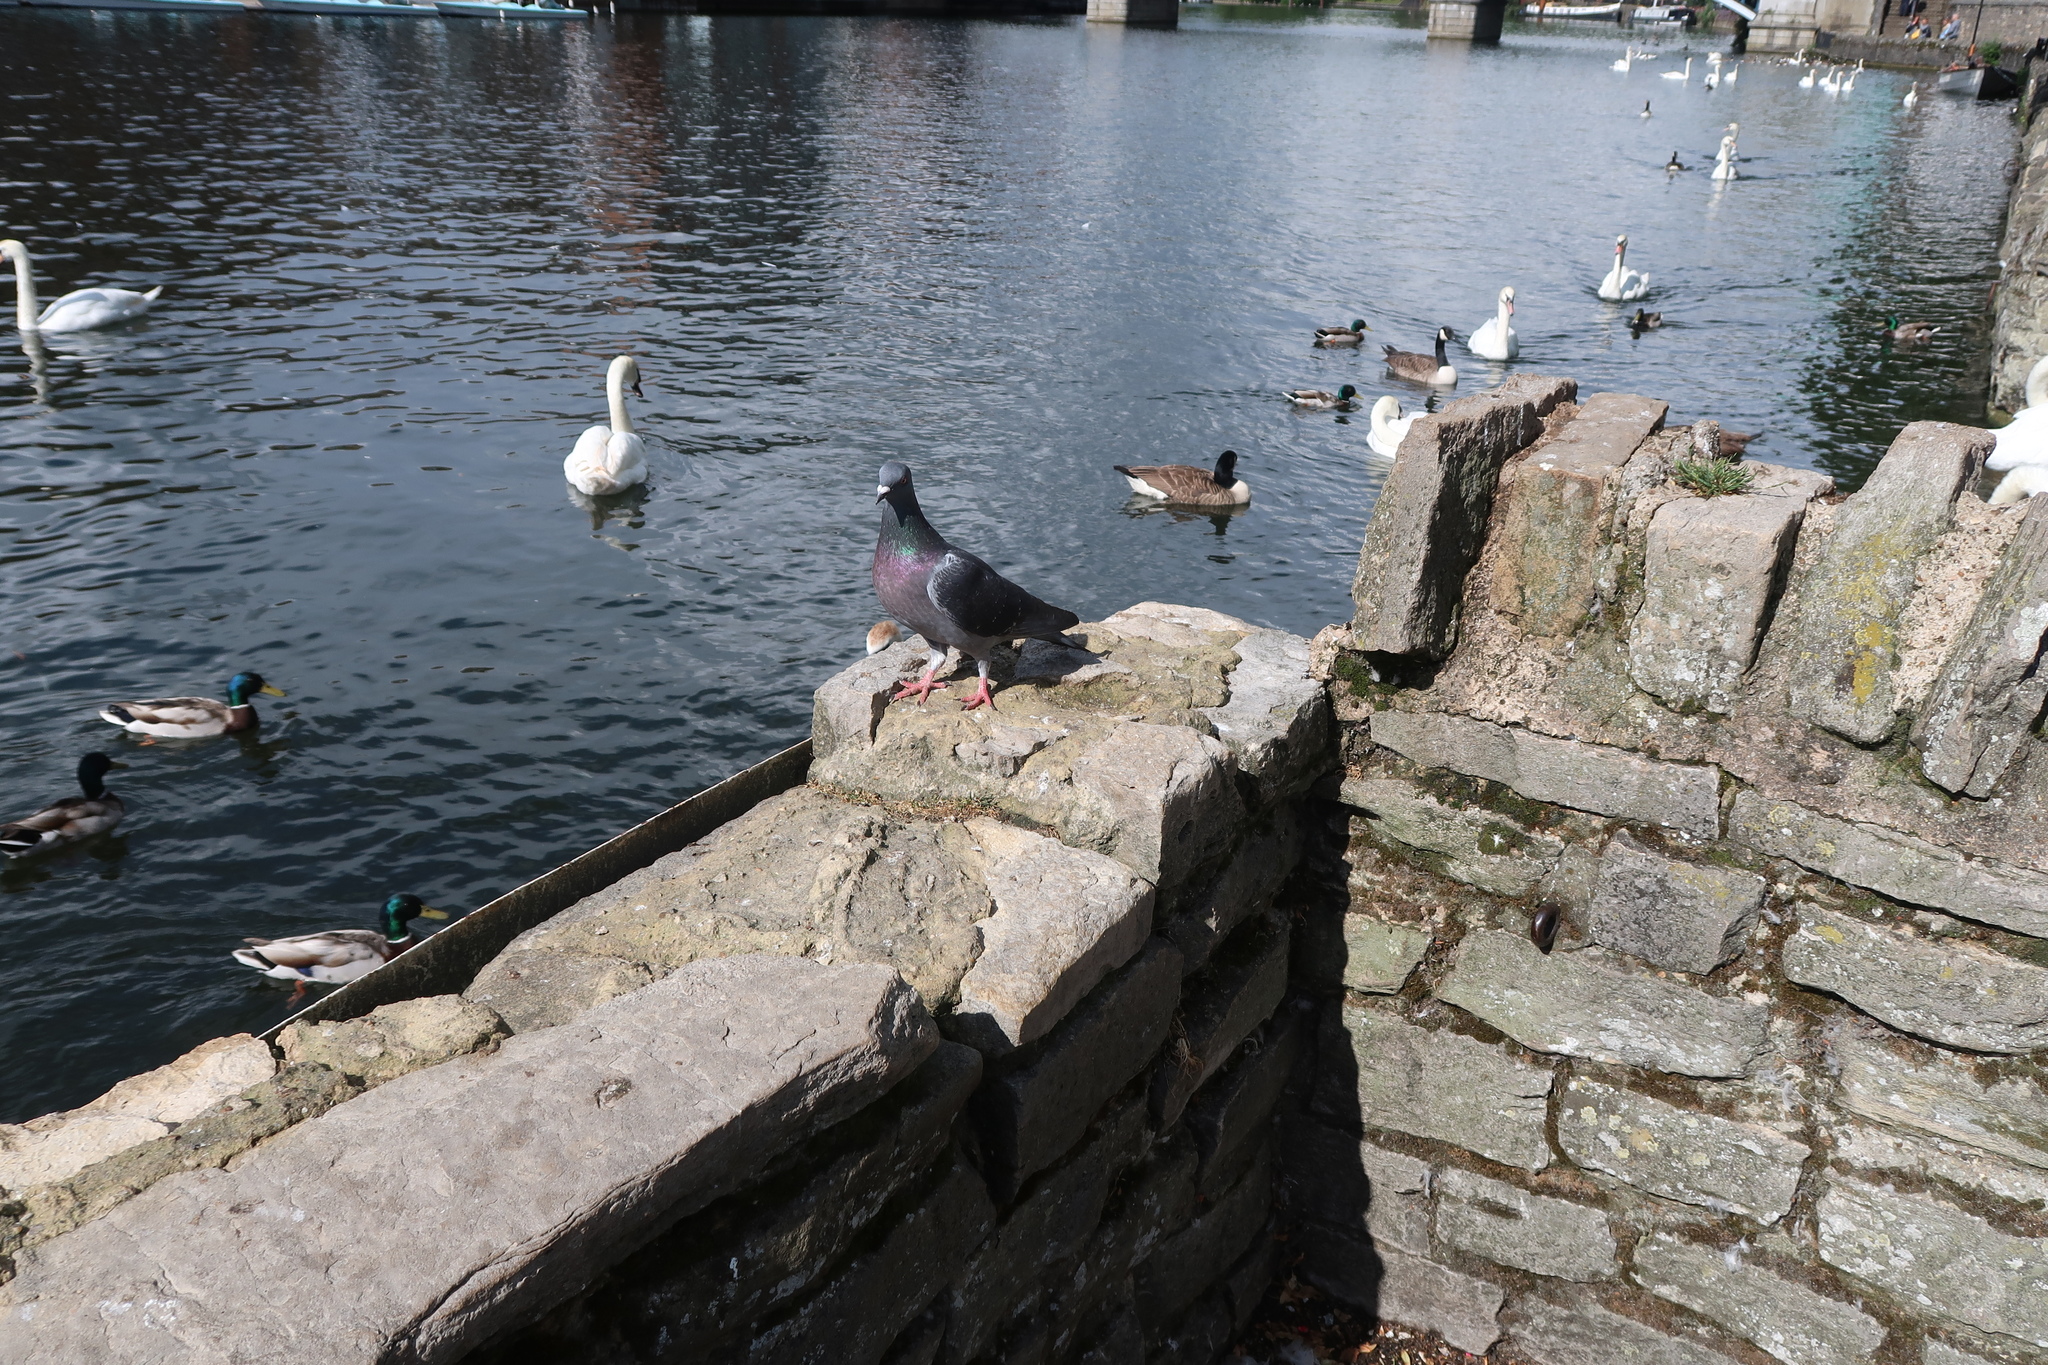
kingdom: Animalia
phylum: Chordata
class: Aves
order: Columbiformes
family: Columbidae
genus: Columba
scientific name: Columba livia
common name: Rock pigeon
